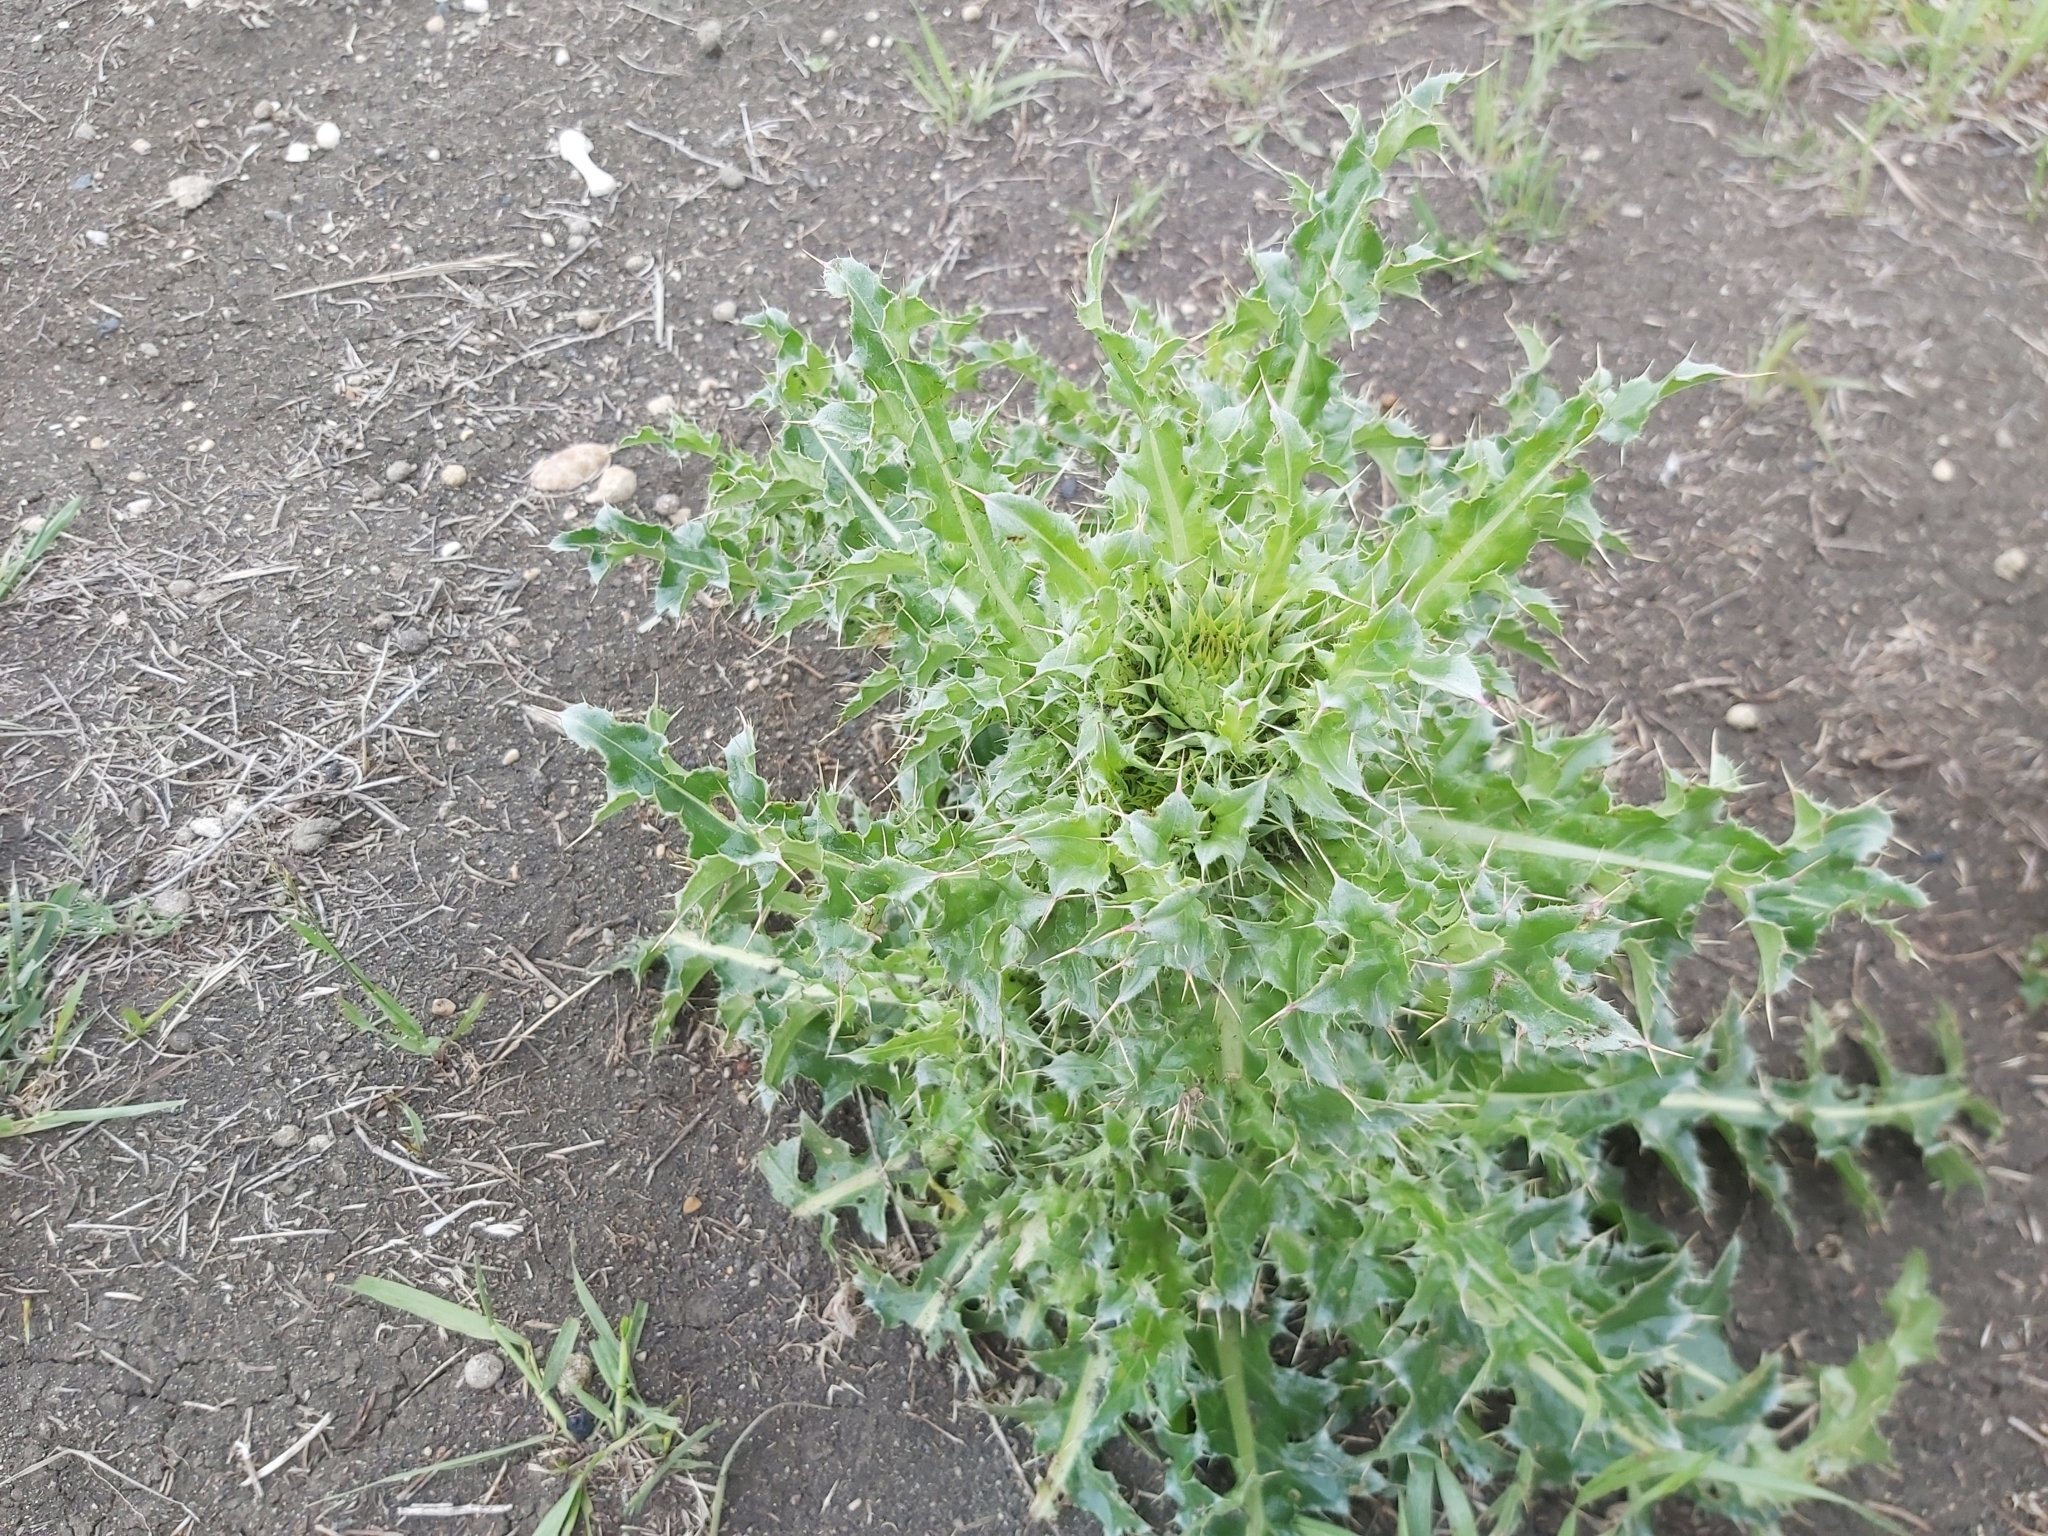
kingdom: Plantae
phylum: Tracheophyta
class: Magnoliopsida
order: Asterales
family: Asteraceae
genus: Carduus
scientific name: Carduus nutans
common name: Musk thistle
